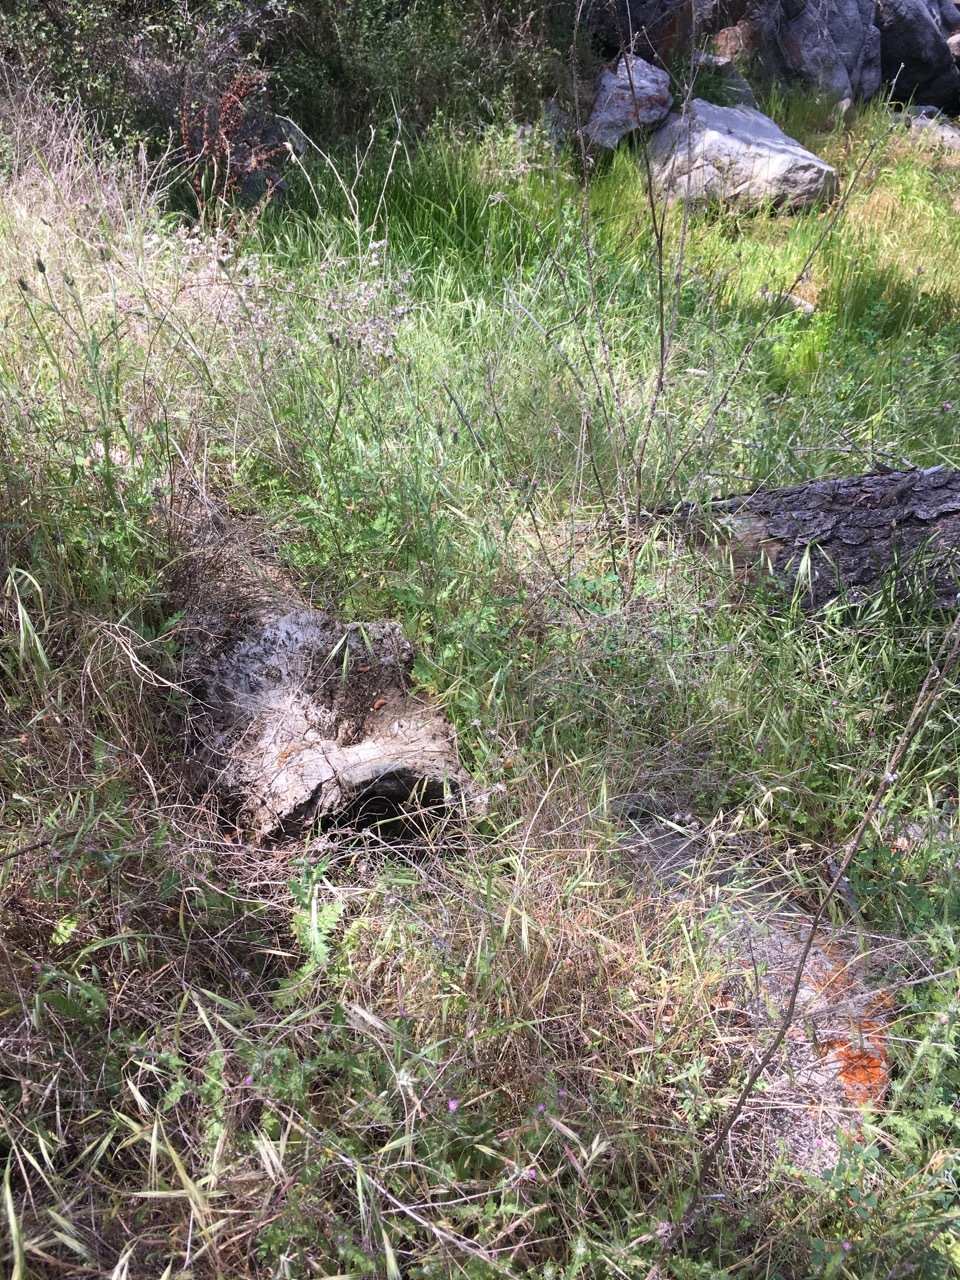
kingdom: Plantae
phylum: Tracheophyta
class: Magnoliopsida
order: Asterales
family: Asteraceae
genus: Carduus
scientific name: Carduus pycnocephalus
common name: Plymouth thistle
